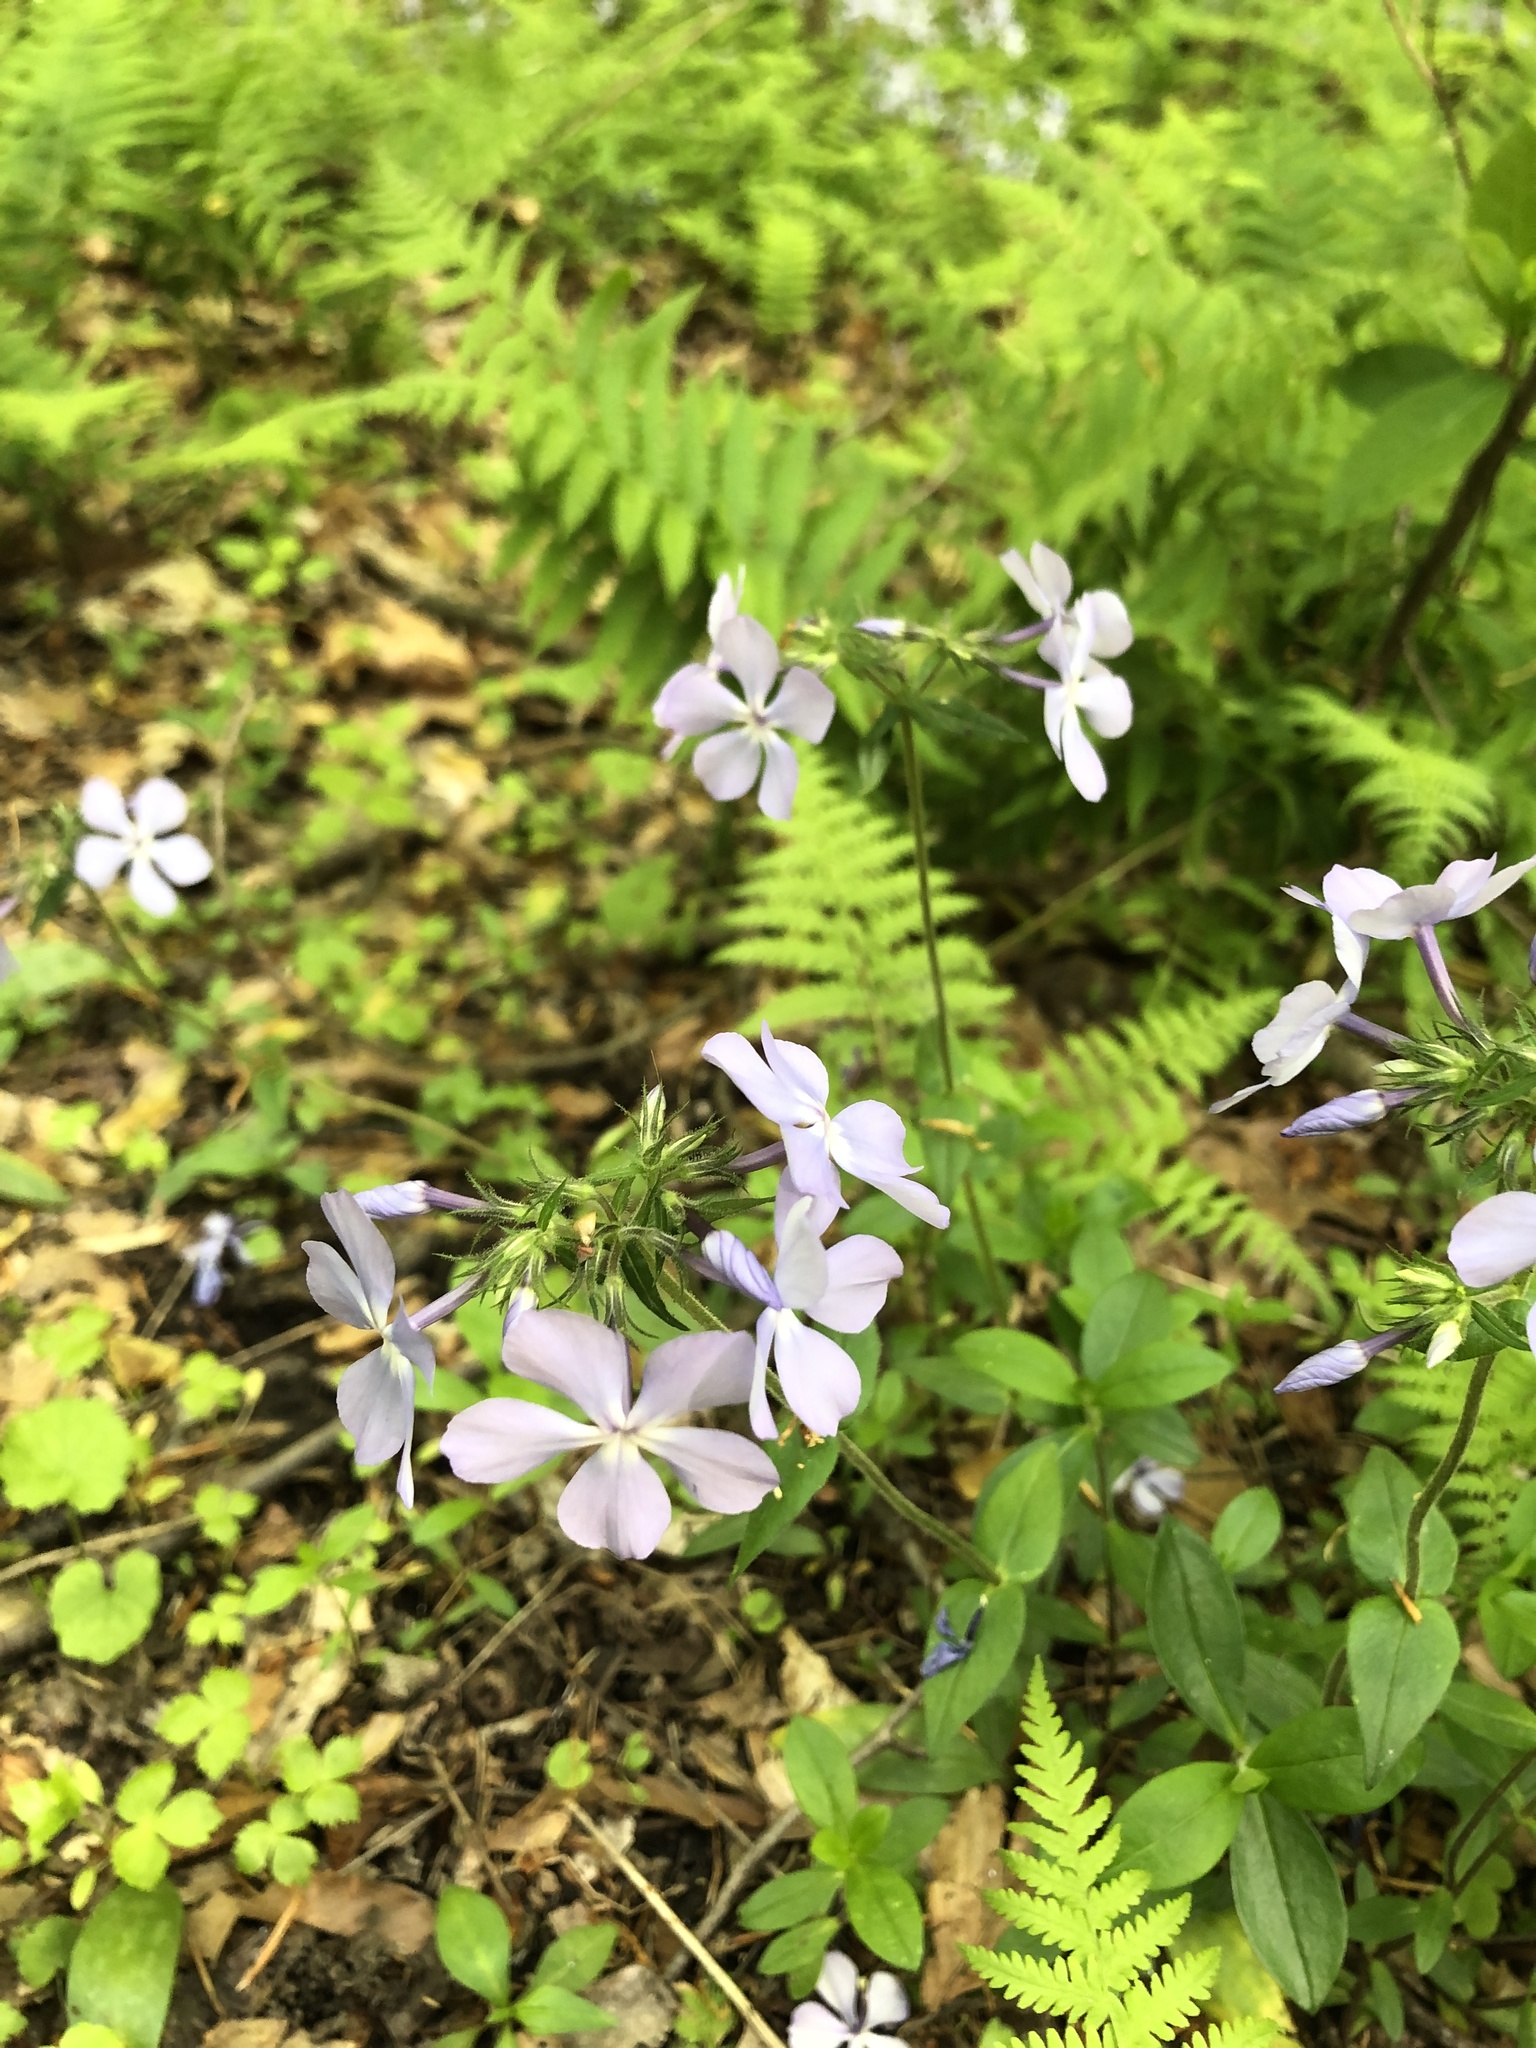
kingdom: Plantae
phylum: Tracheophyta
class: Magnoliopsida
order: Ericales
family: Polemoniaceae
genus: Phlox
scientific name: Phlox divaricata
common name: Blue phlox
